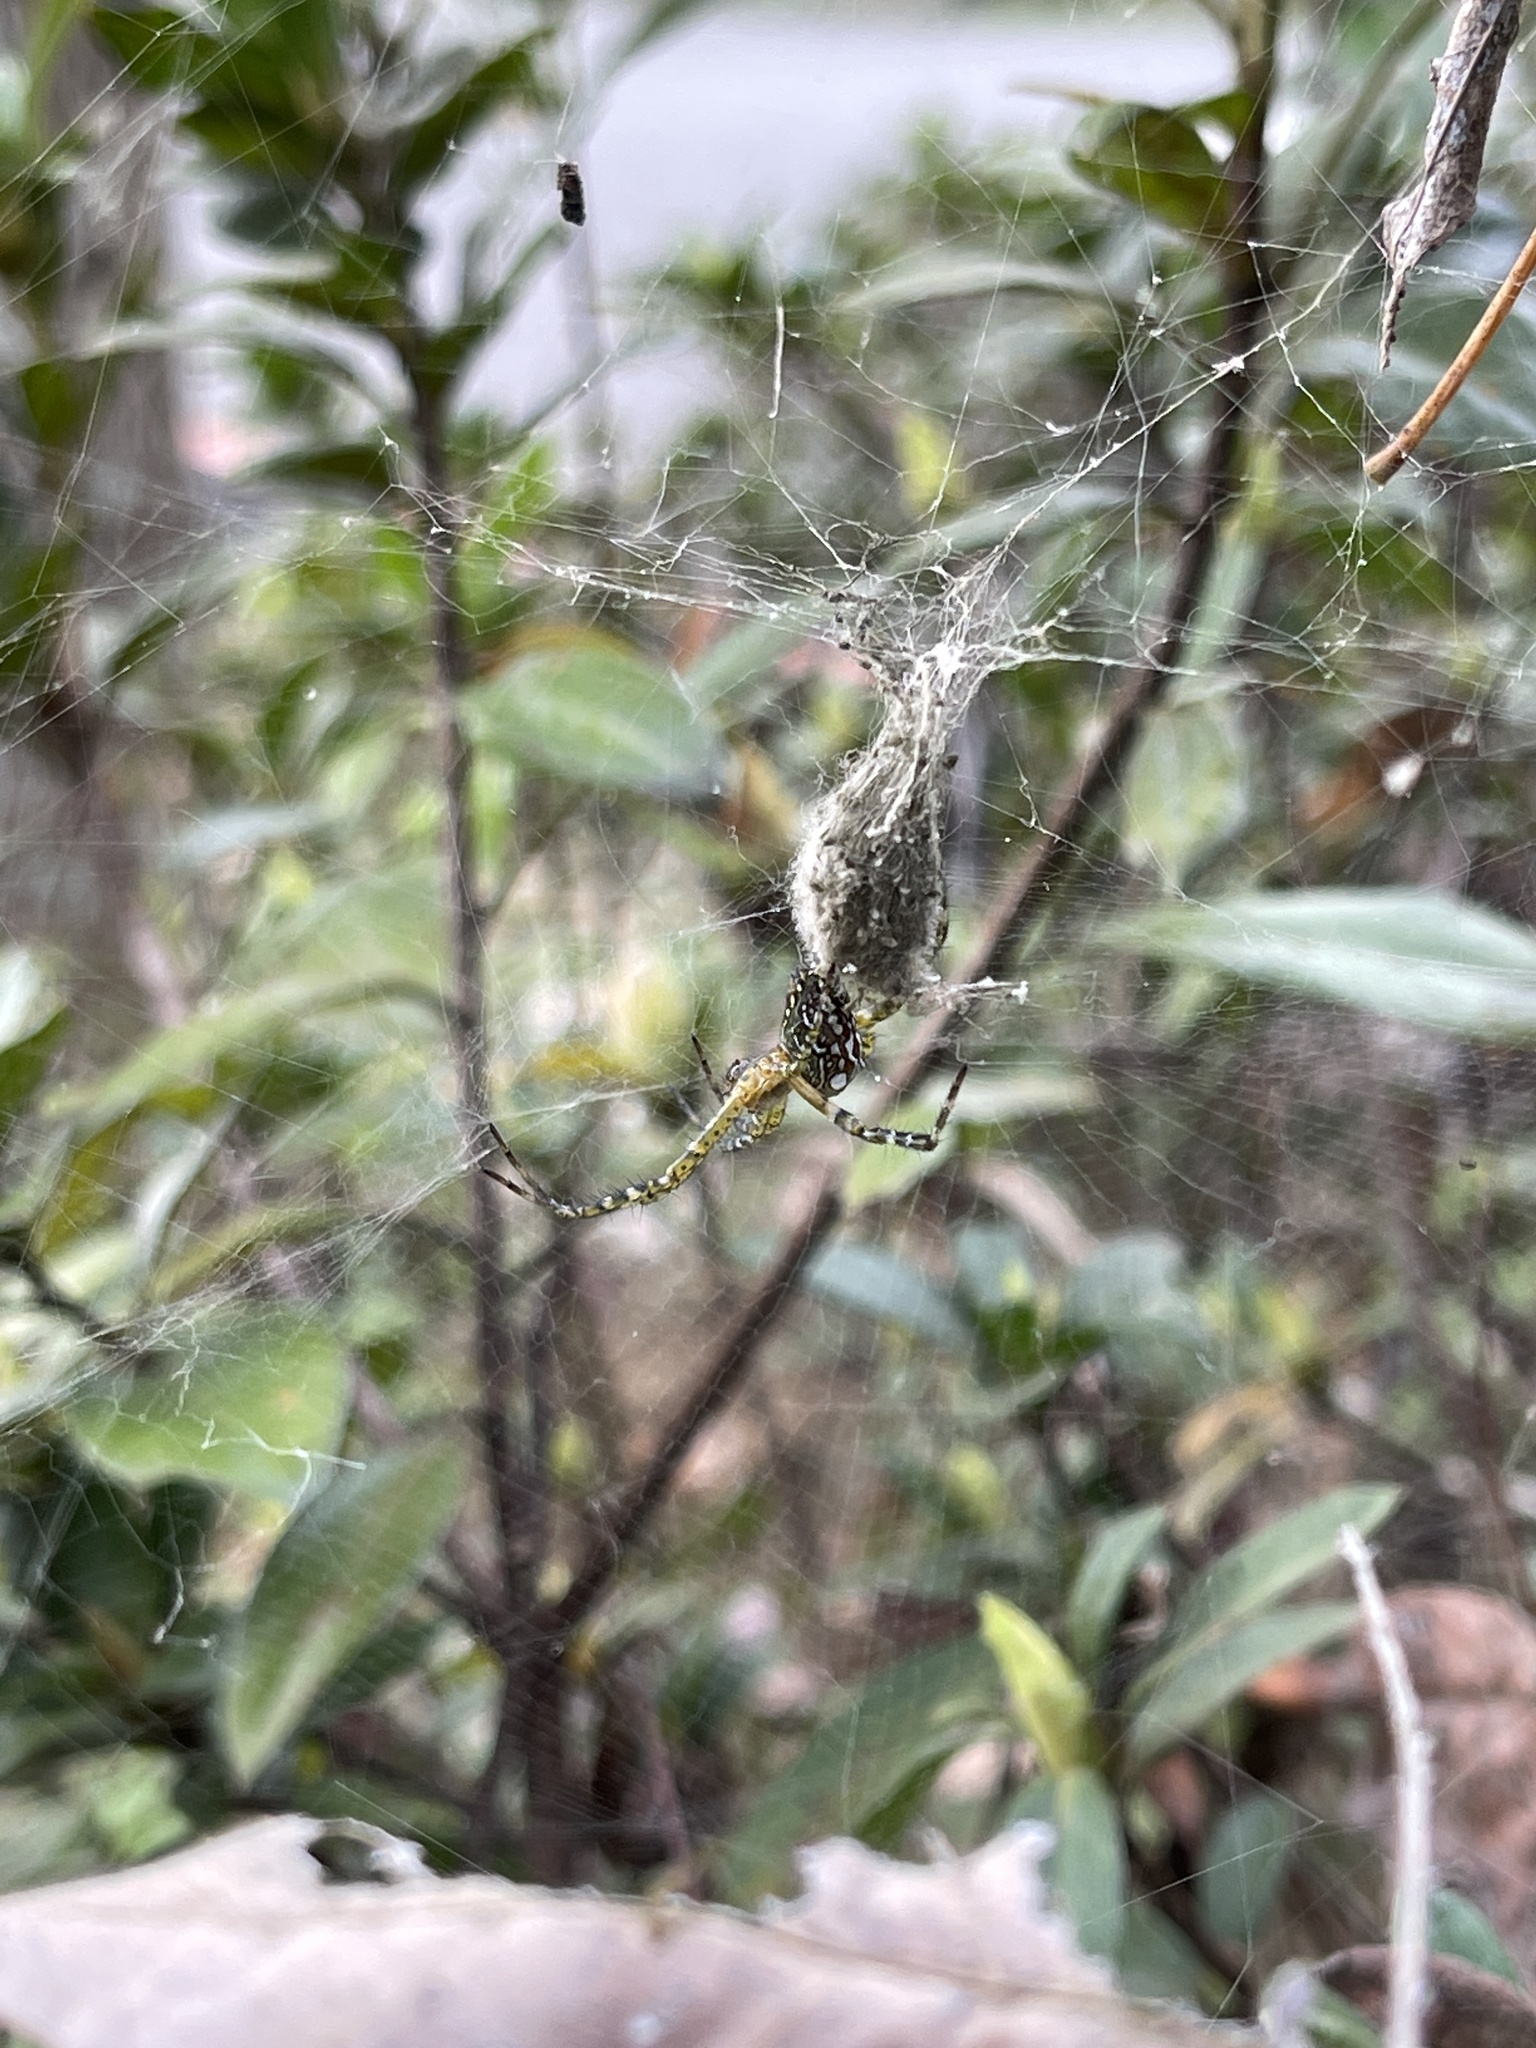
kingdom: Chromista
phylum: Ochrophyta
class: Dictyochophyceae
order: Pedinellales
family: Cyrtophoraceae
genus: Cyrtophora
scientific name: Cyrtophora moluccensis
